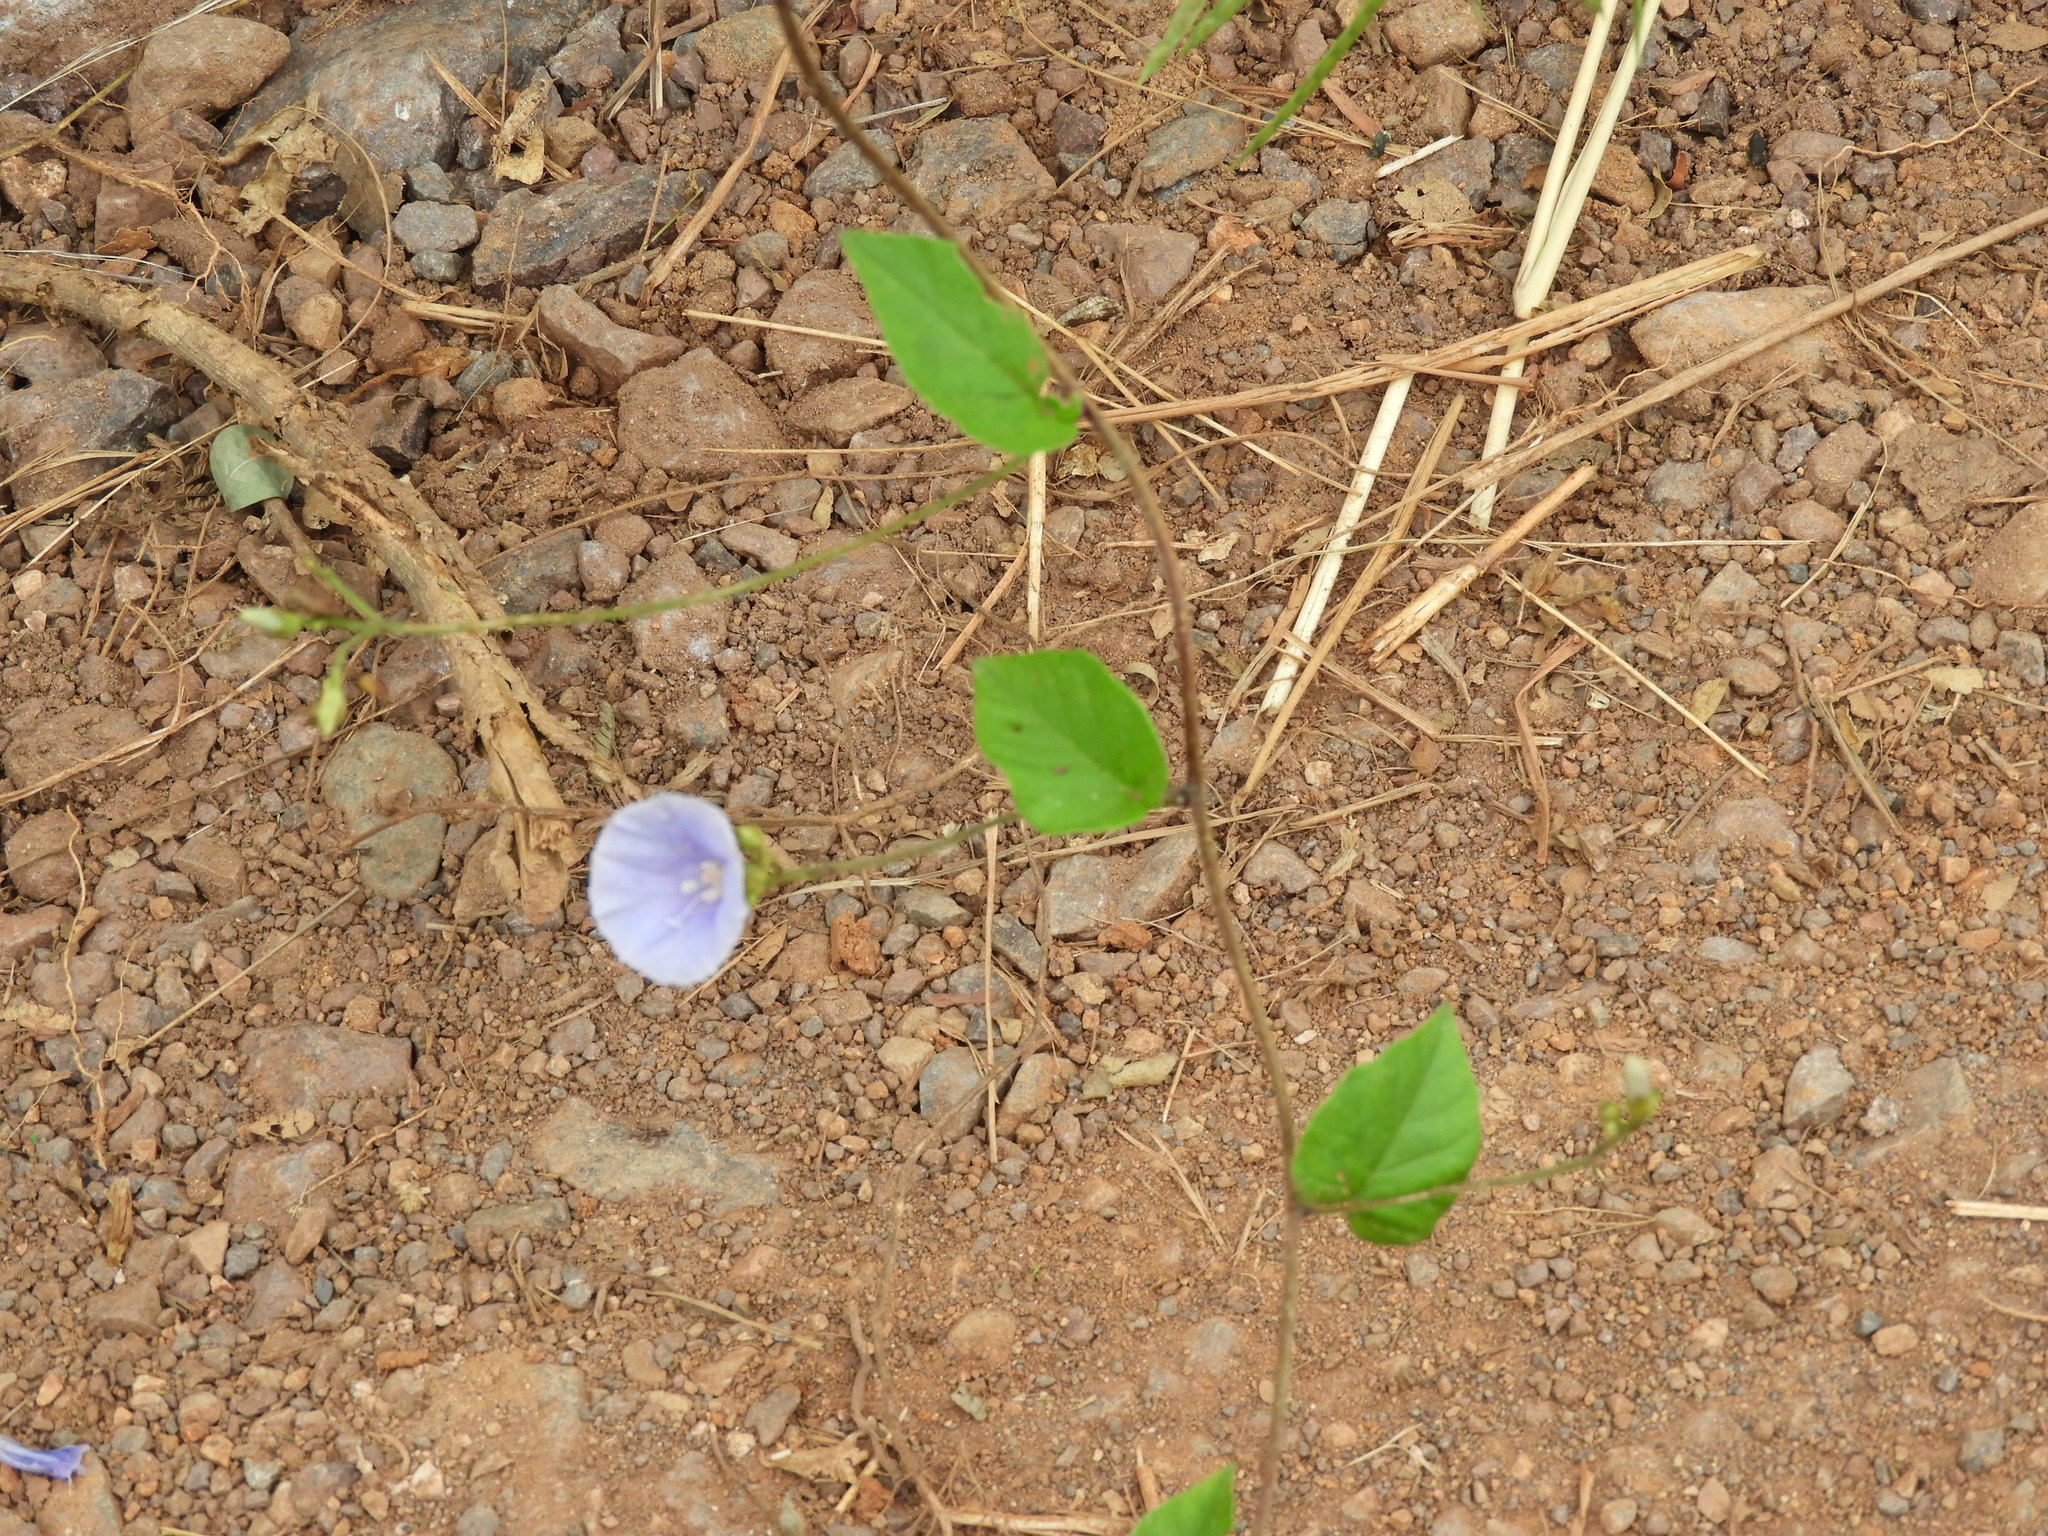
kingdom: Plantae
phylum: Tracheophyta
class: Magnoliopsida
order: Solanales
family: Convolvulaceae
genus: Jacquemontia
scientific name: Jacquemontia
